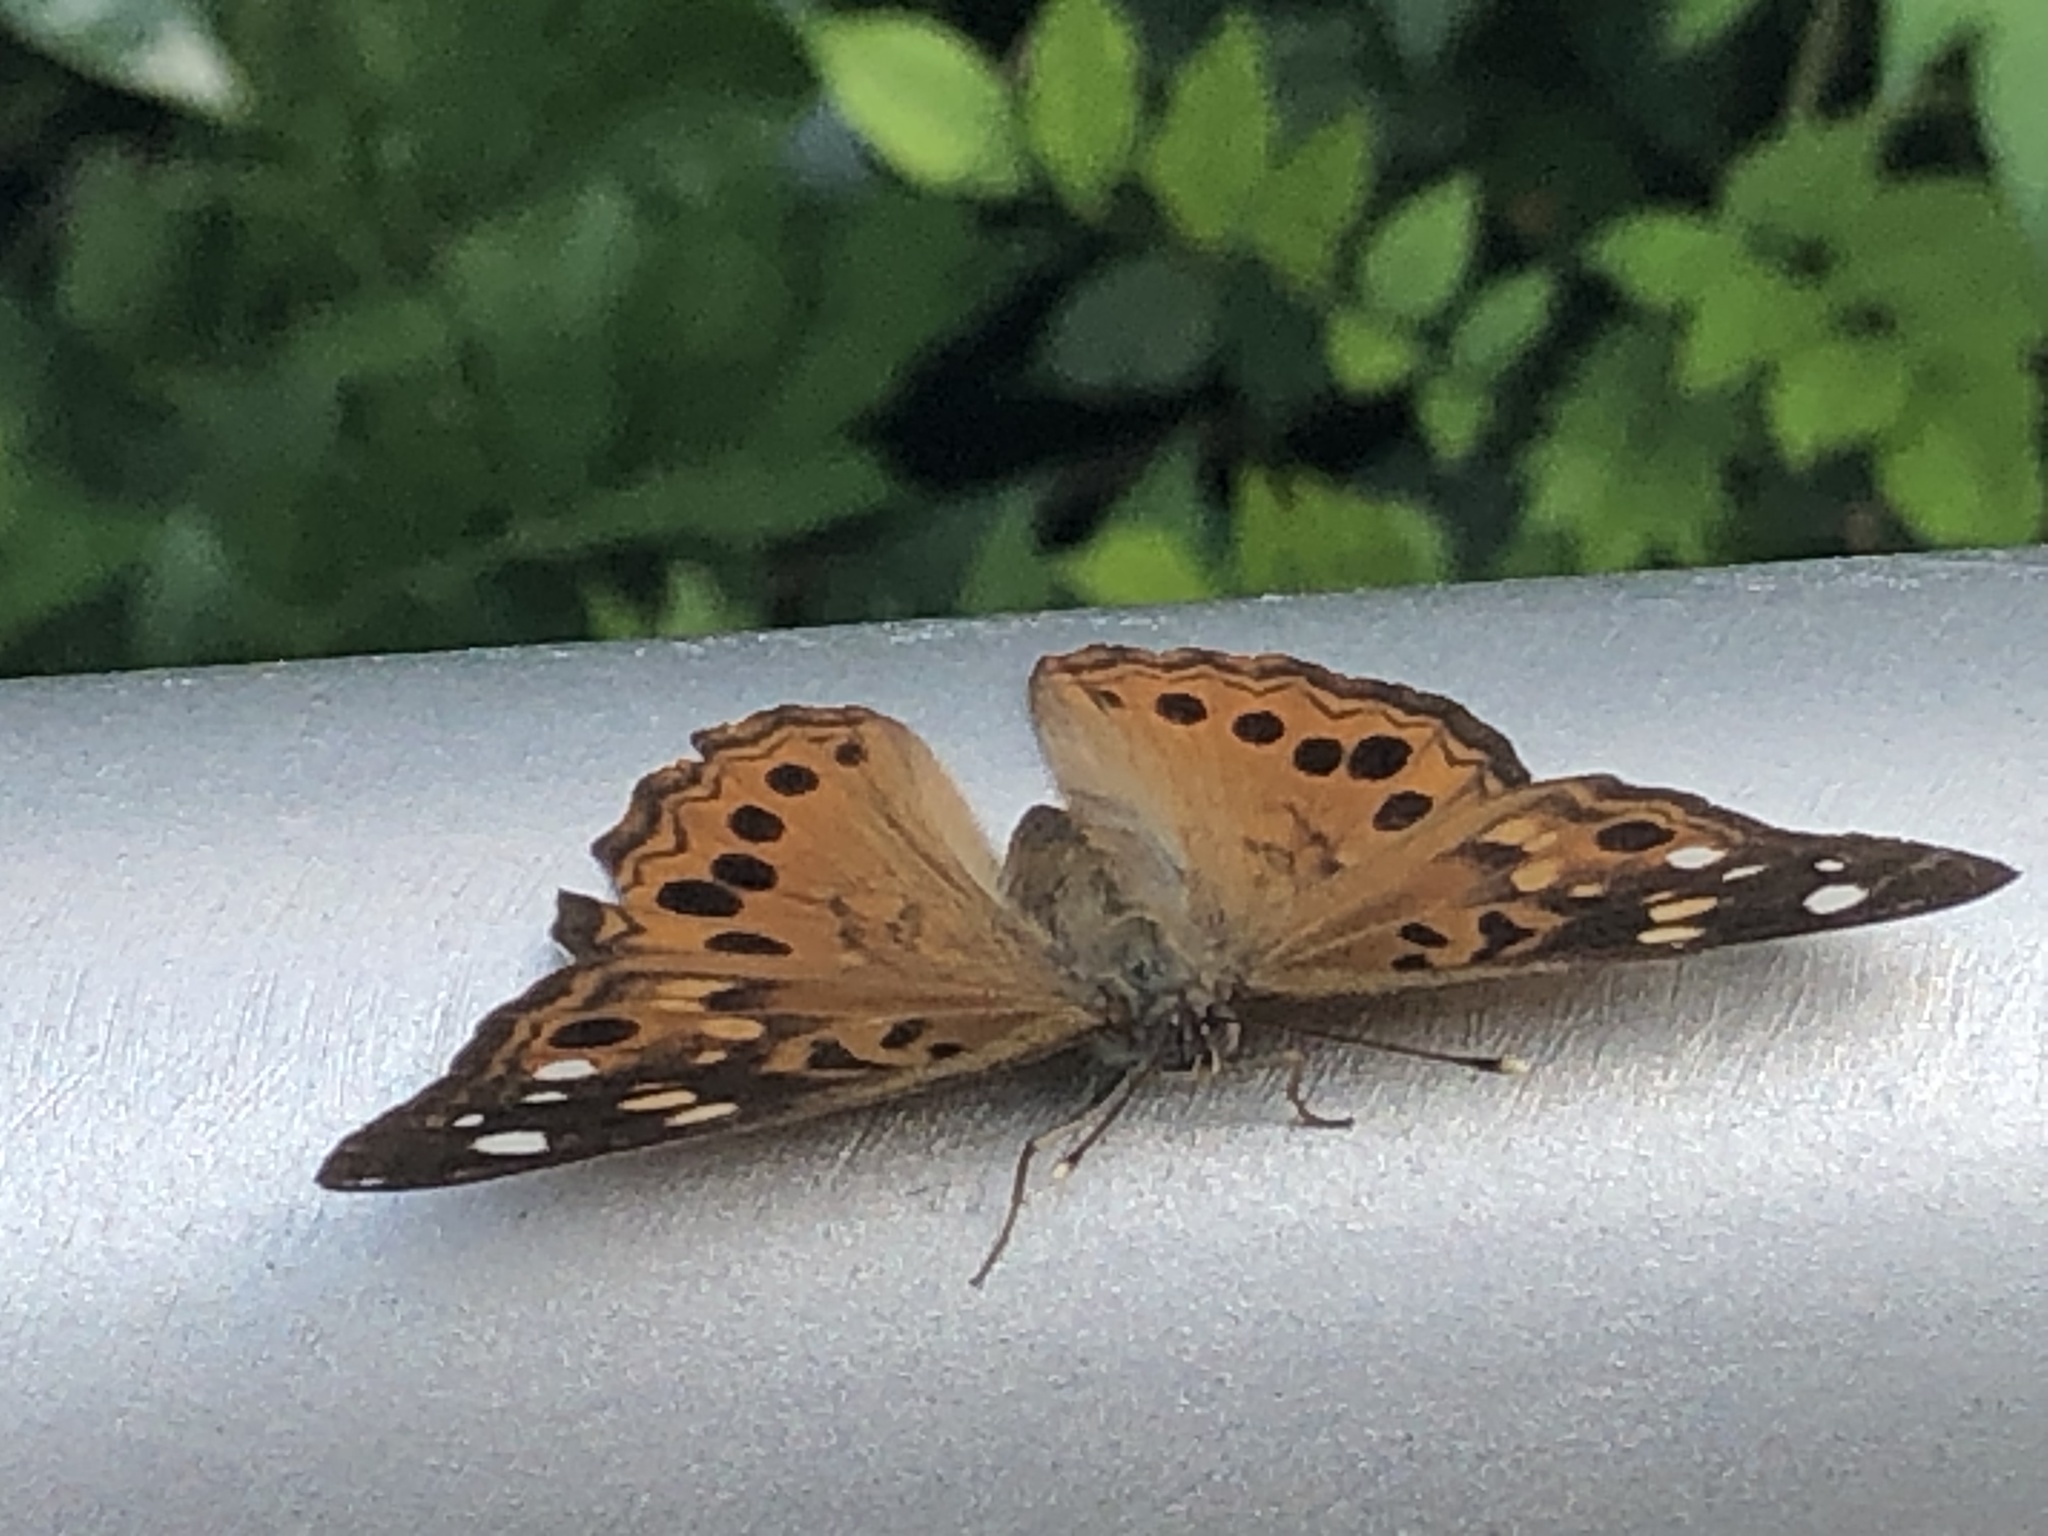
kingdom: Animalia
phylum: Arthropoda
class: Insecta
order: Lepidoptera
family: Nymphalidae
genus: Asterocampa
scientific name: Asterocampa celtis
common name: Hackberry emperor
